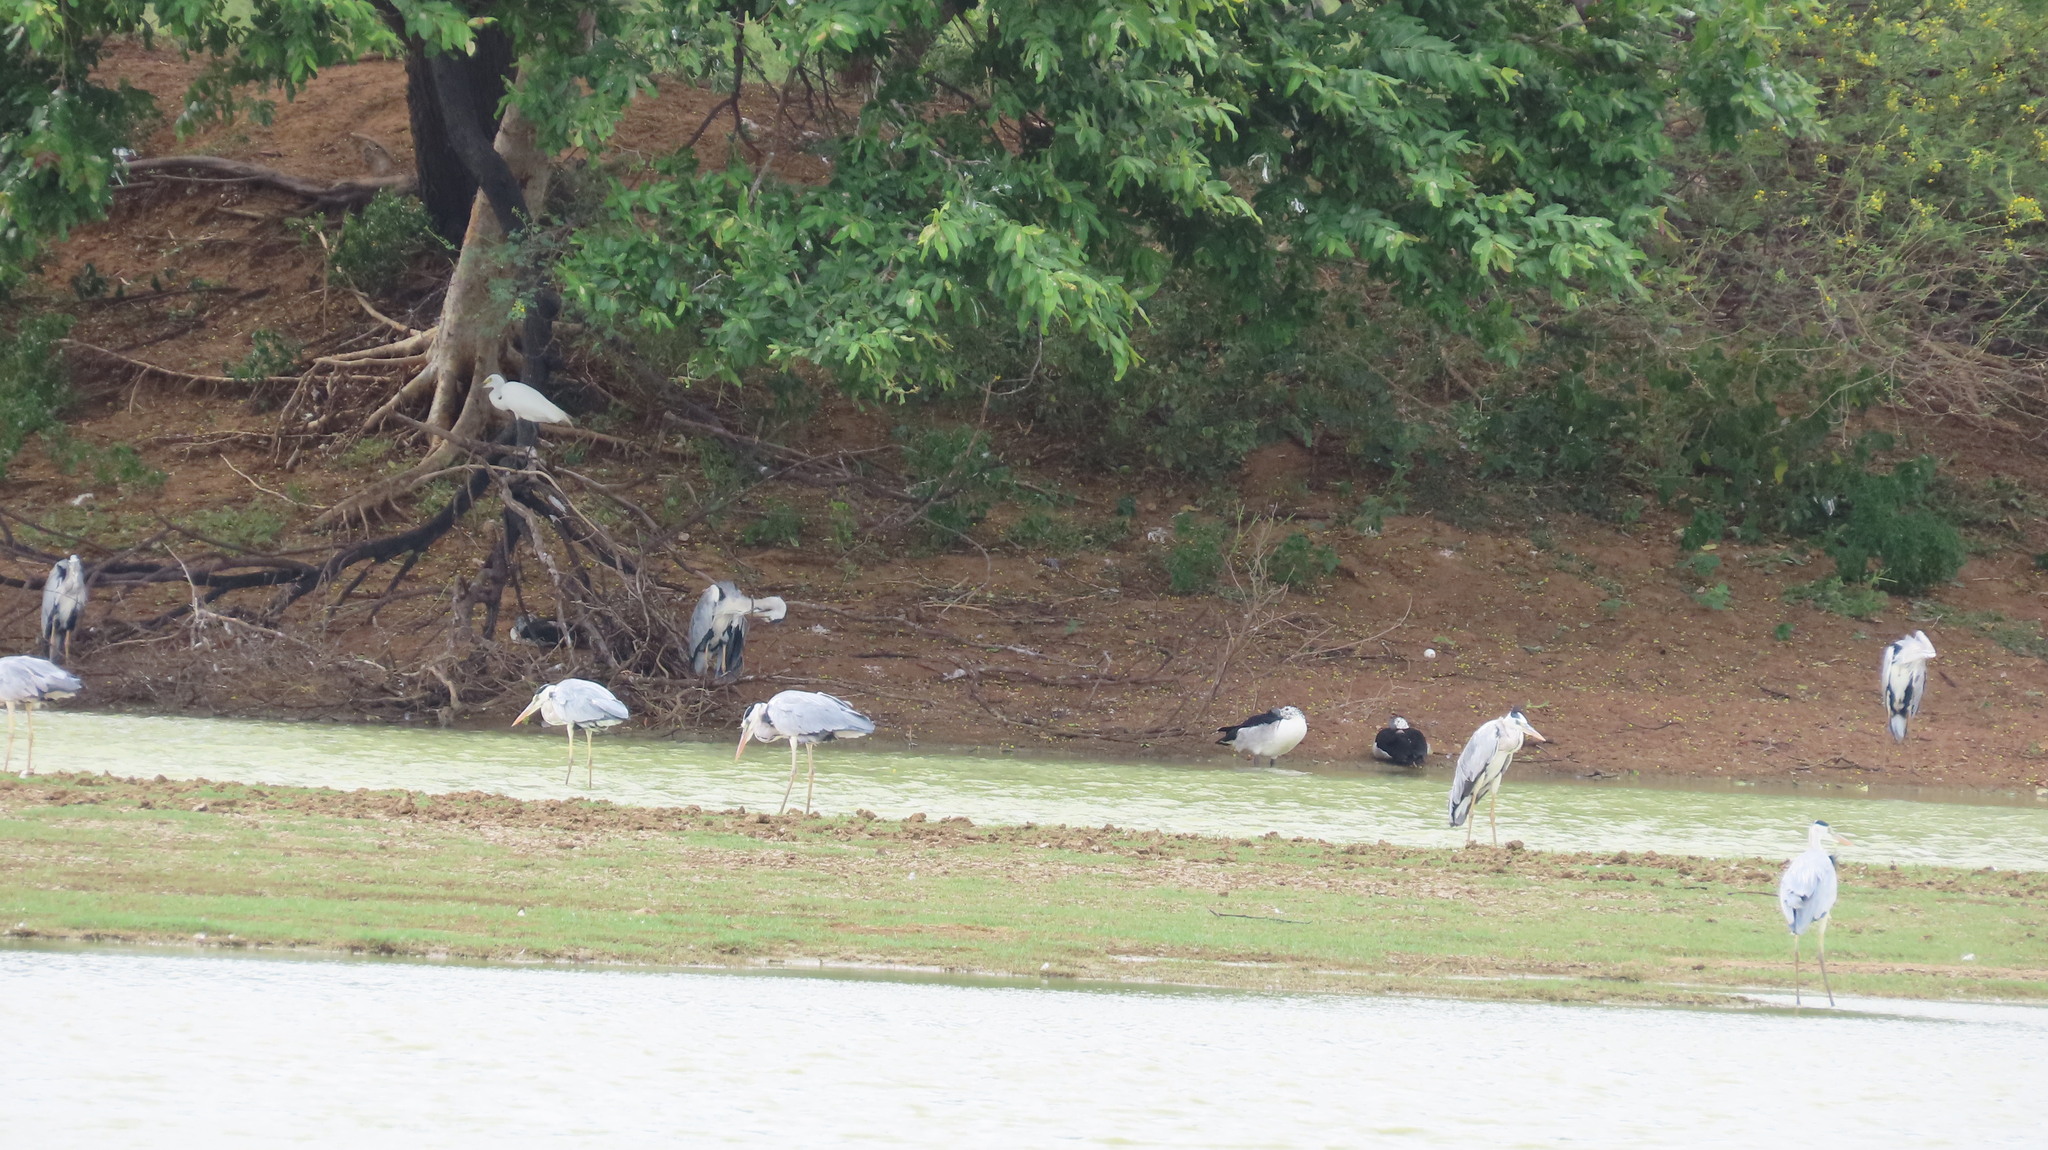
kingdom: Animalia
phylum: Chordata
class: Aves
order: Pelecaniformes
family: Ardeidae
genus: Egretta
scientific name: Egretta intermedia
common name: Intermediate egret
